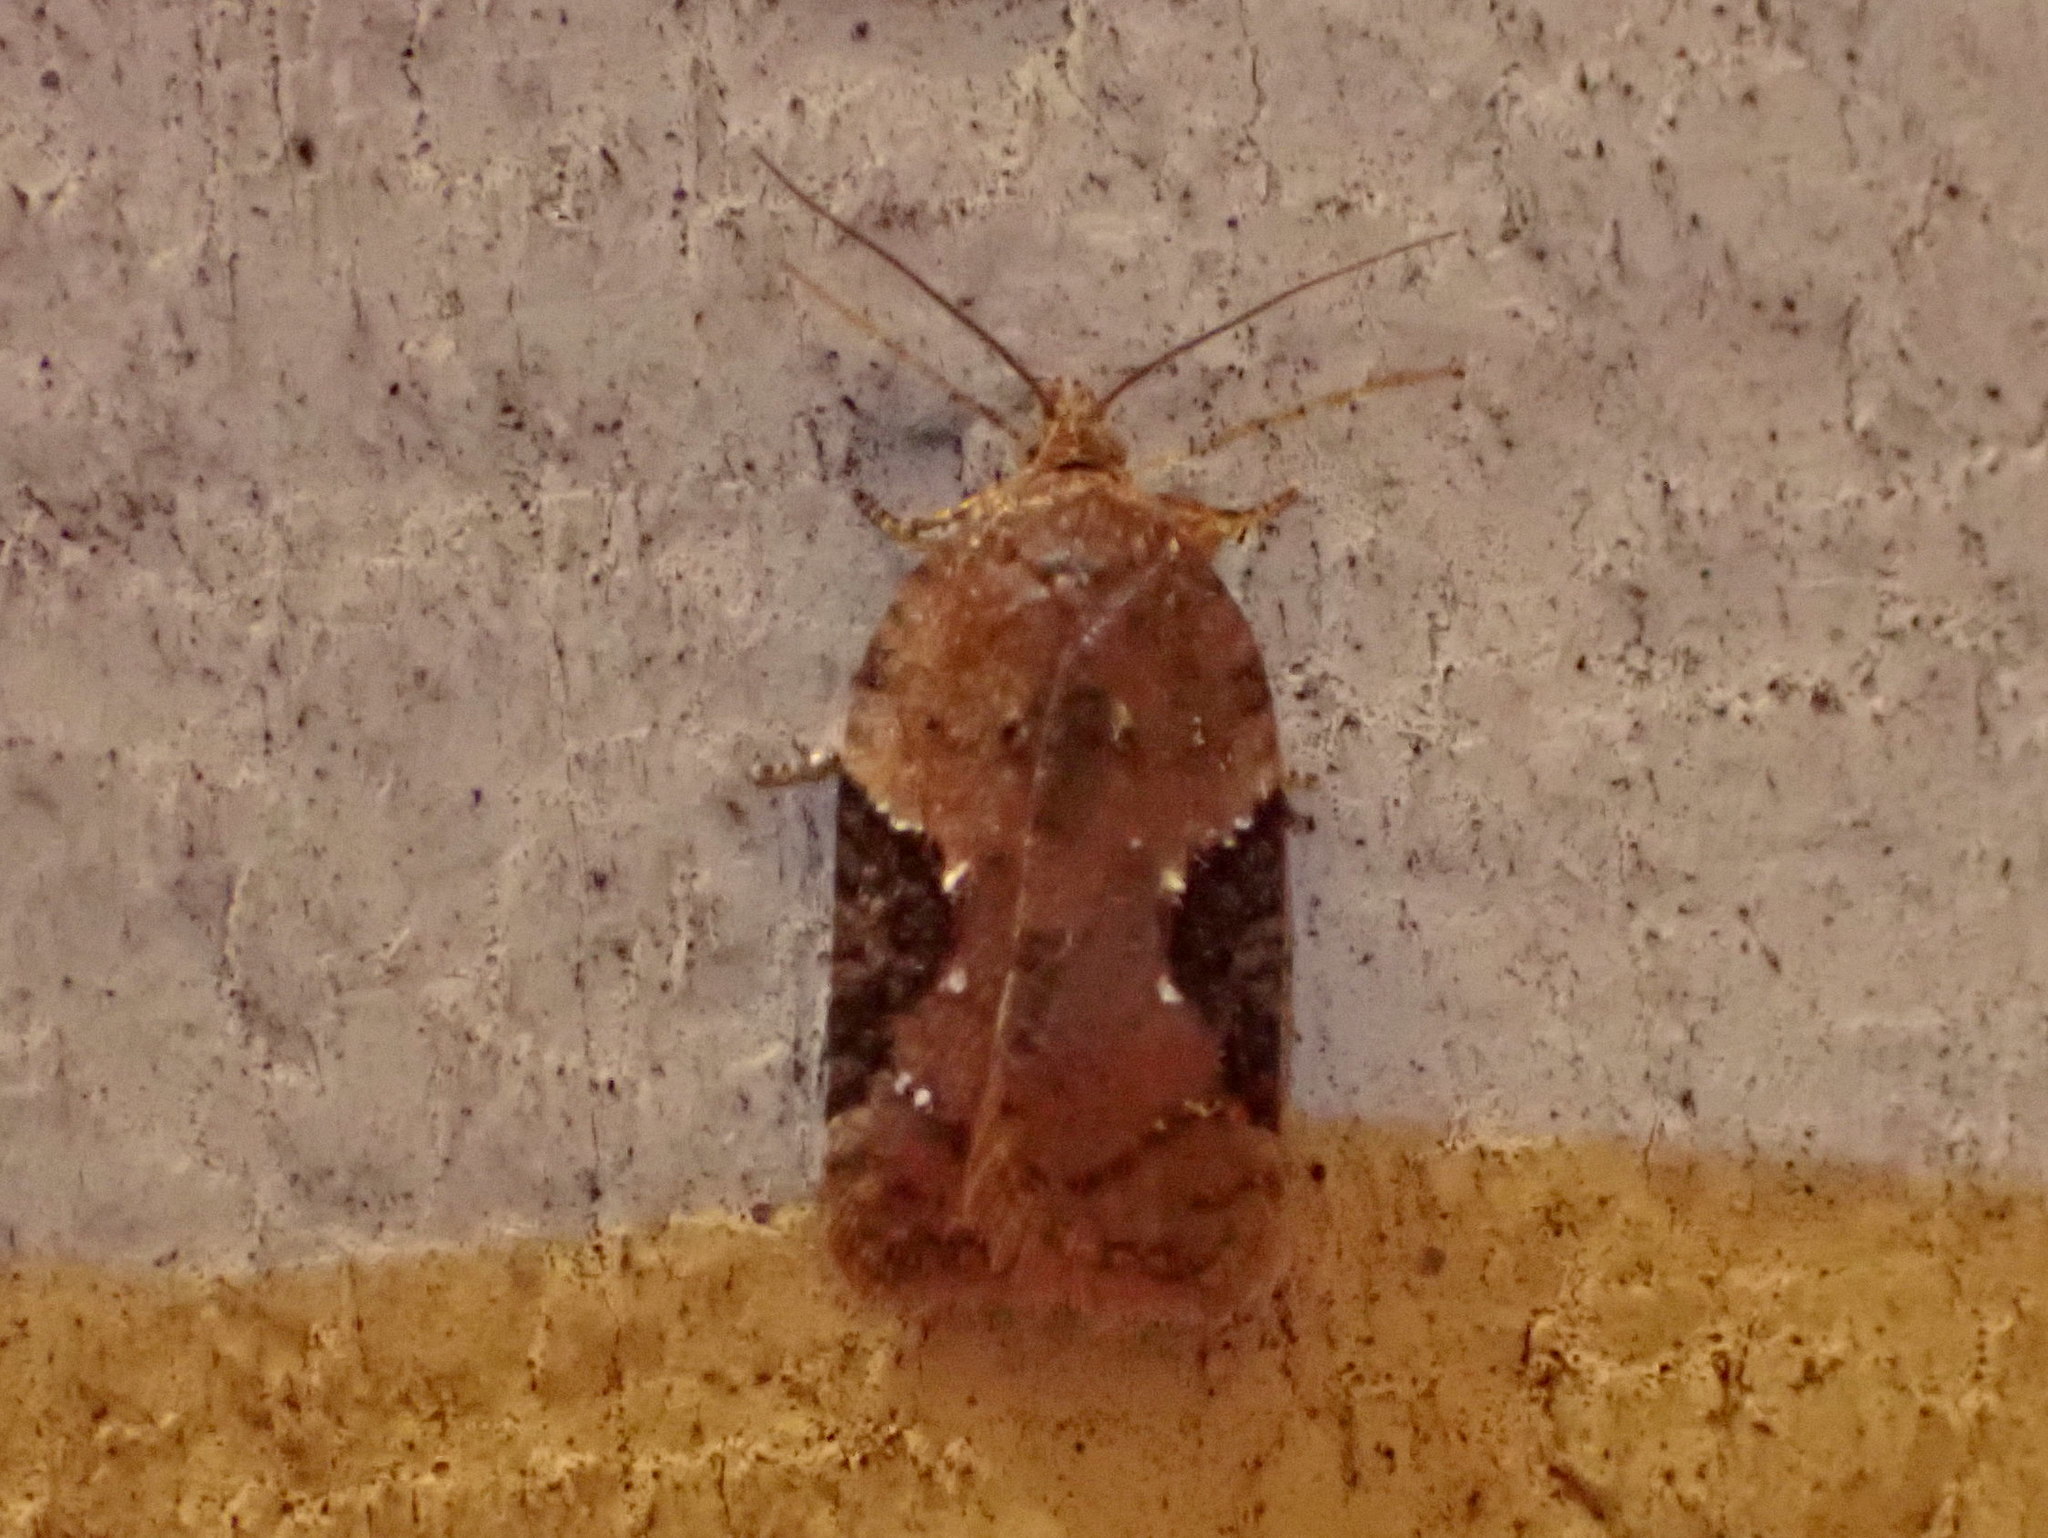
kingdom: Animalia
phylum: Arthropoda
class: Insecta
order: Lepidoptera
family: Tortricidae
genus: Acleris
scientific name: Acleris braunana
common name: Alder leafroller
